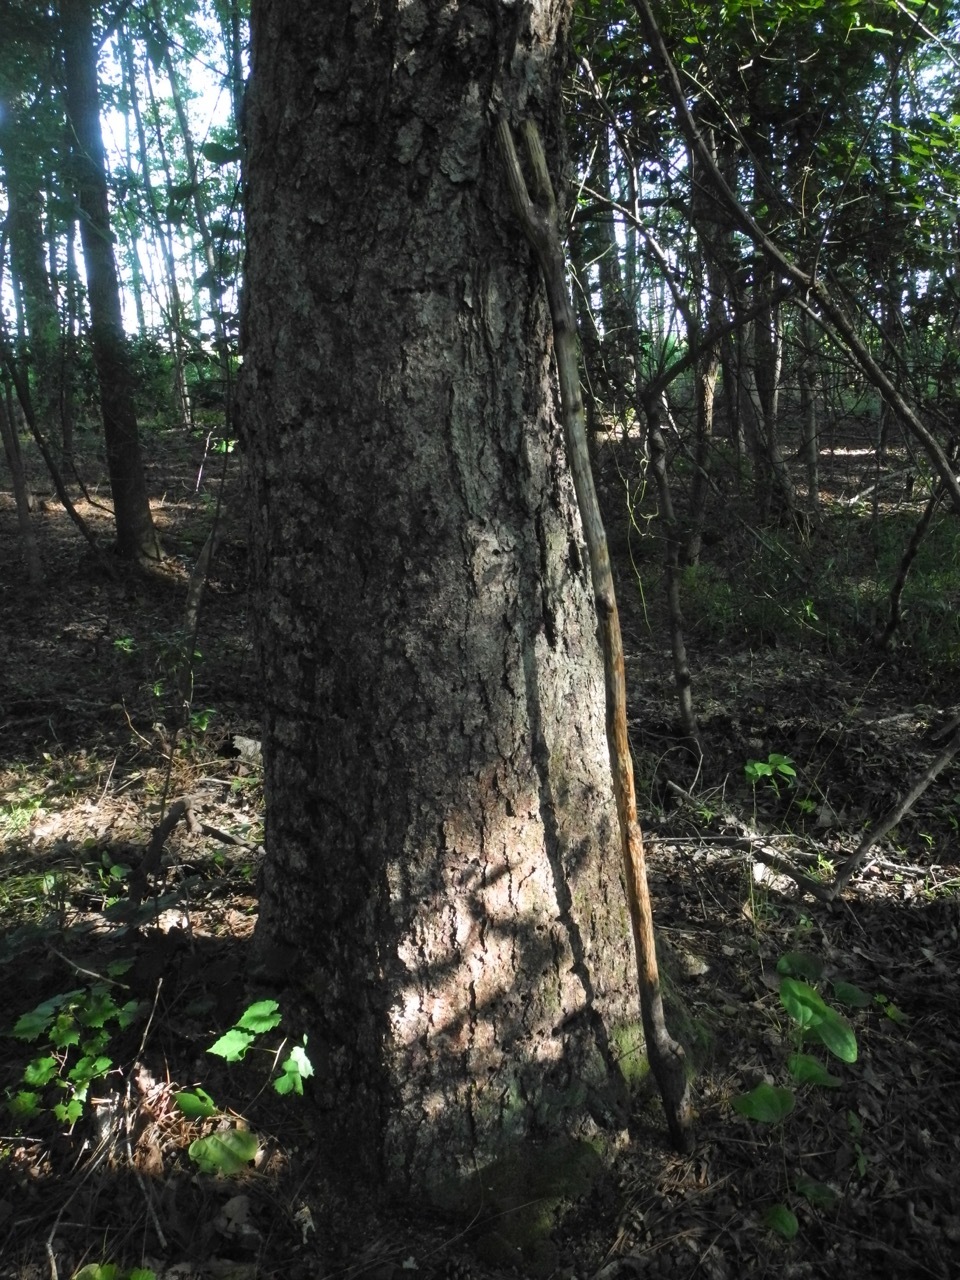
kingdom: Plantae
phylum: Tracheophyta
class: Magnoliopsida
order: Fagales
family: Betulaceae
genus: Betula
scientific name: Betula nigra
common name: Black birch
